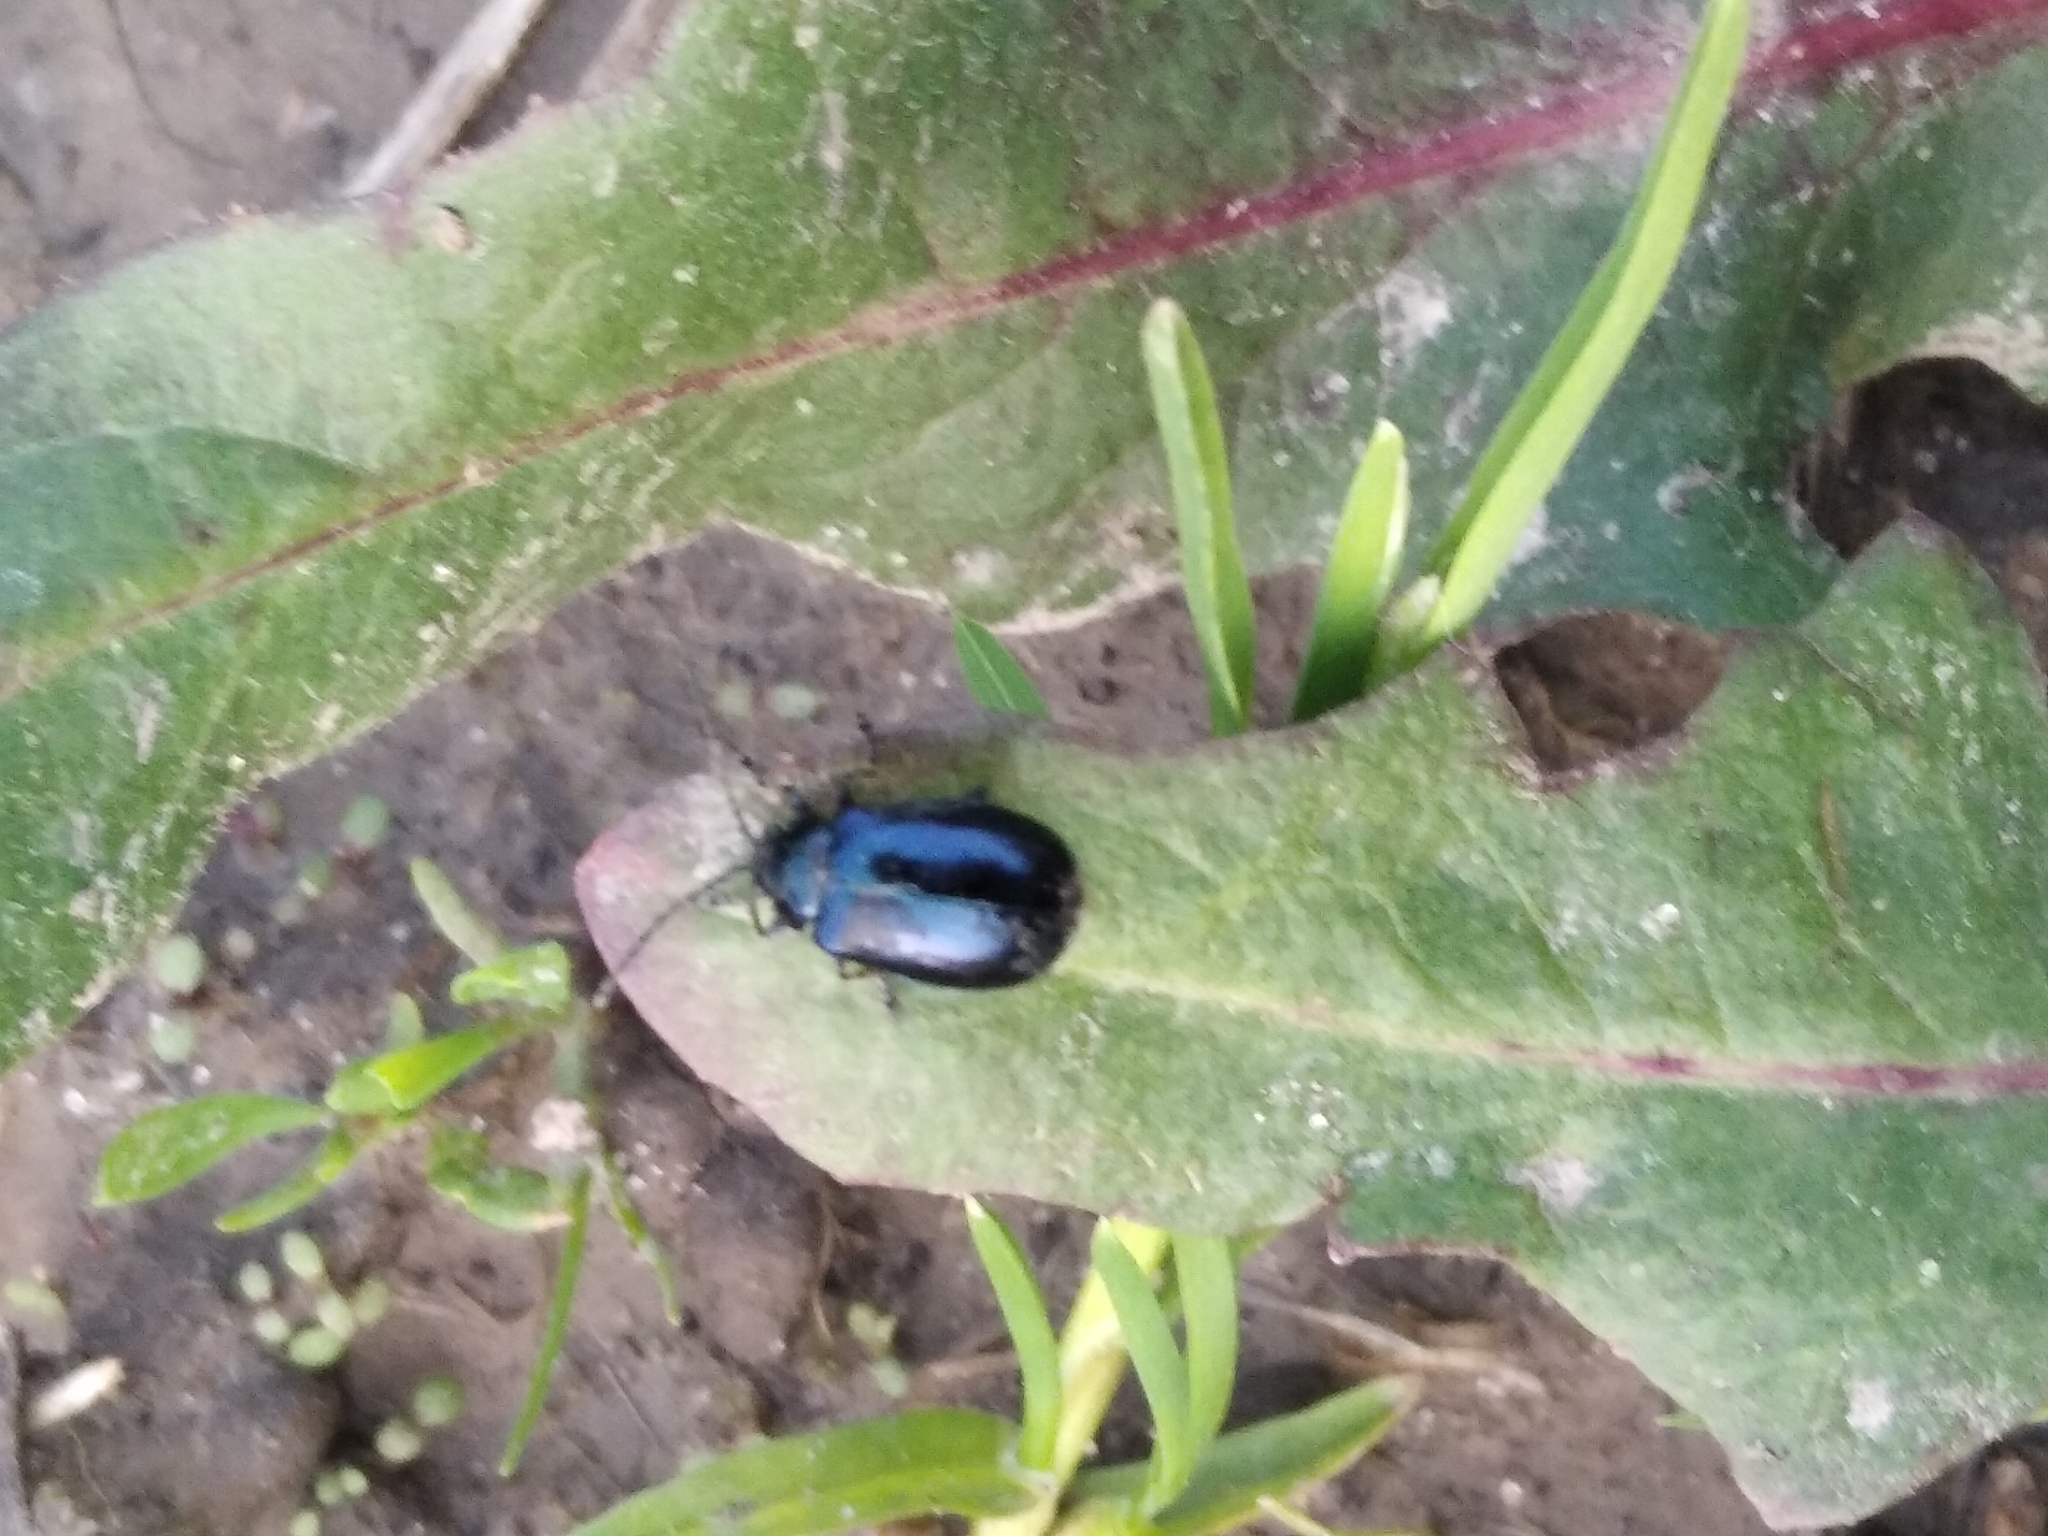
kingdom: Animalia
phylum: Arthropoda
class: Insecta
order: Coleoptera
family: Chrysomelidae
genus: Agelastica
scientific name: Agelastica alni
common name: Alder leaf beetle
